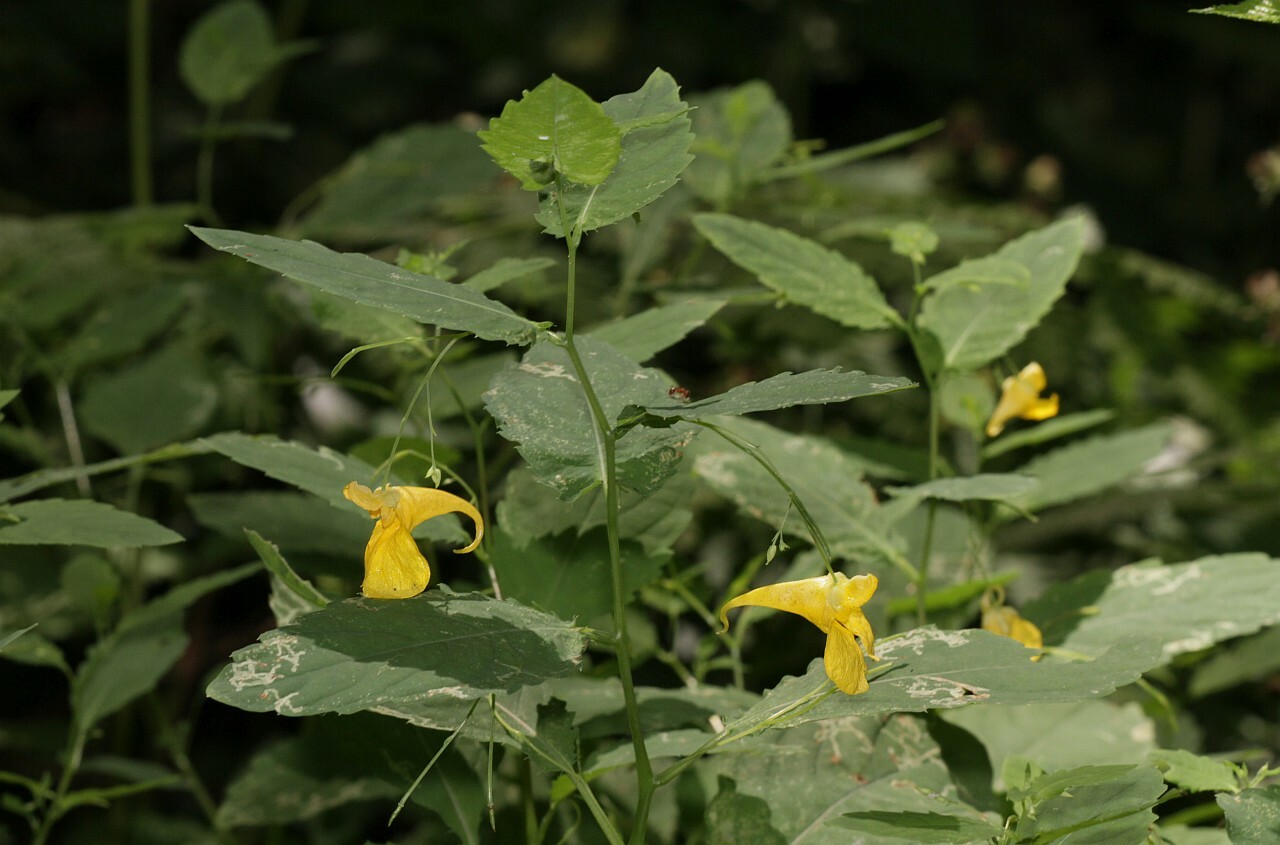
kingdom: Plantae
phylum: Tracheophyta
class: Magnoliopsida
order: Ericales
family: Balsaminaceae
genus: Impatiens
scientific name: Impatiens noli-tangere
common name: Touch-me-not balsam
